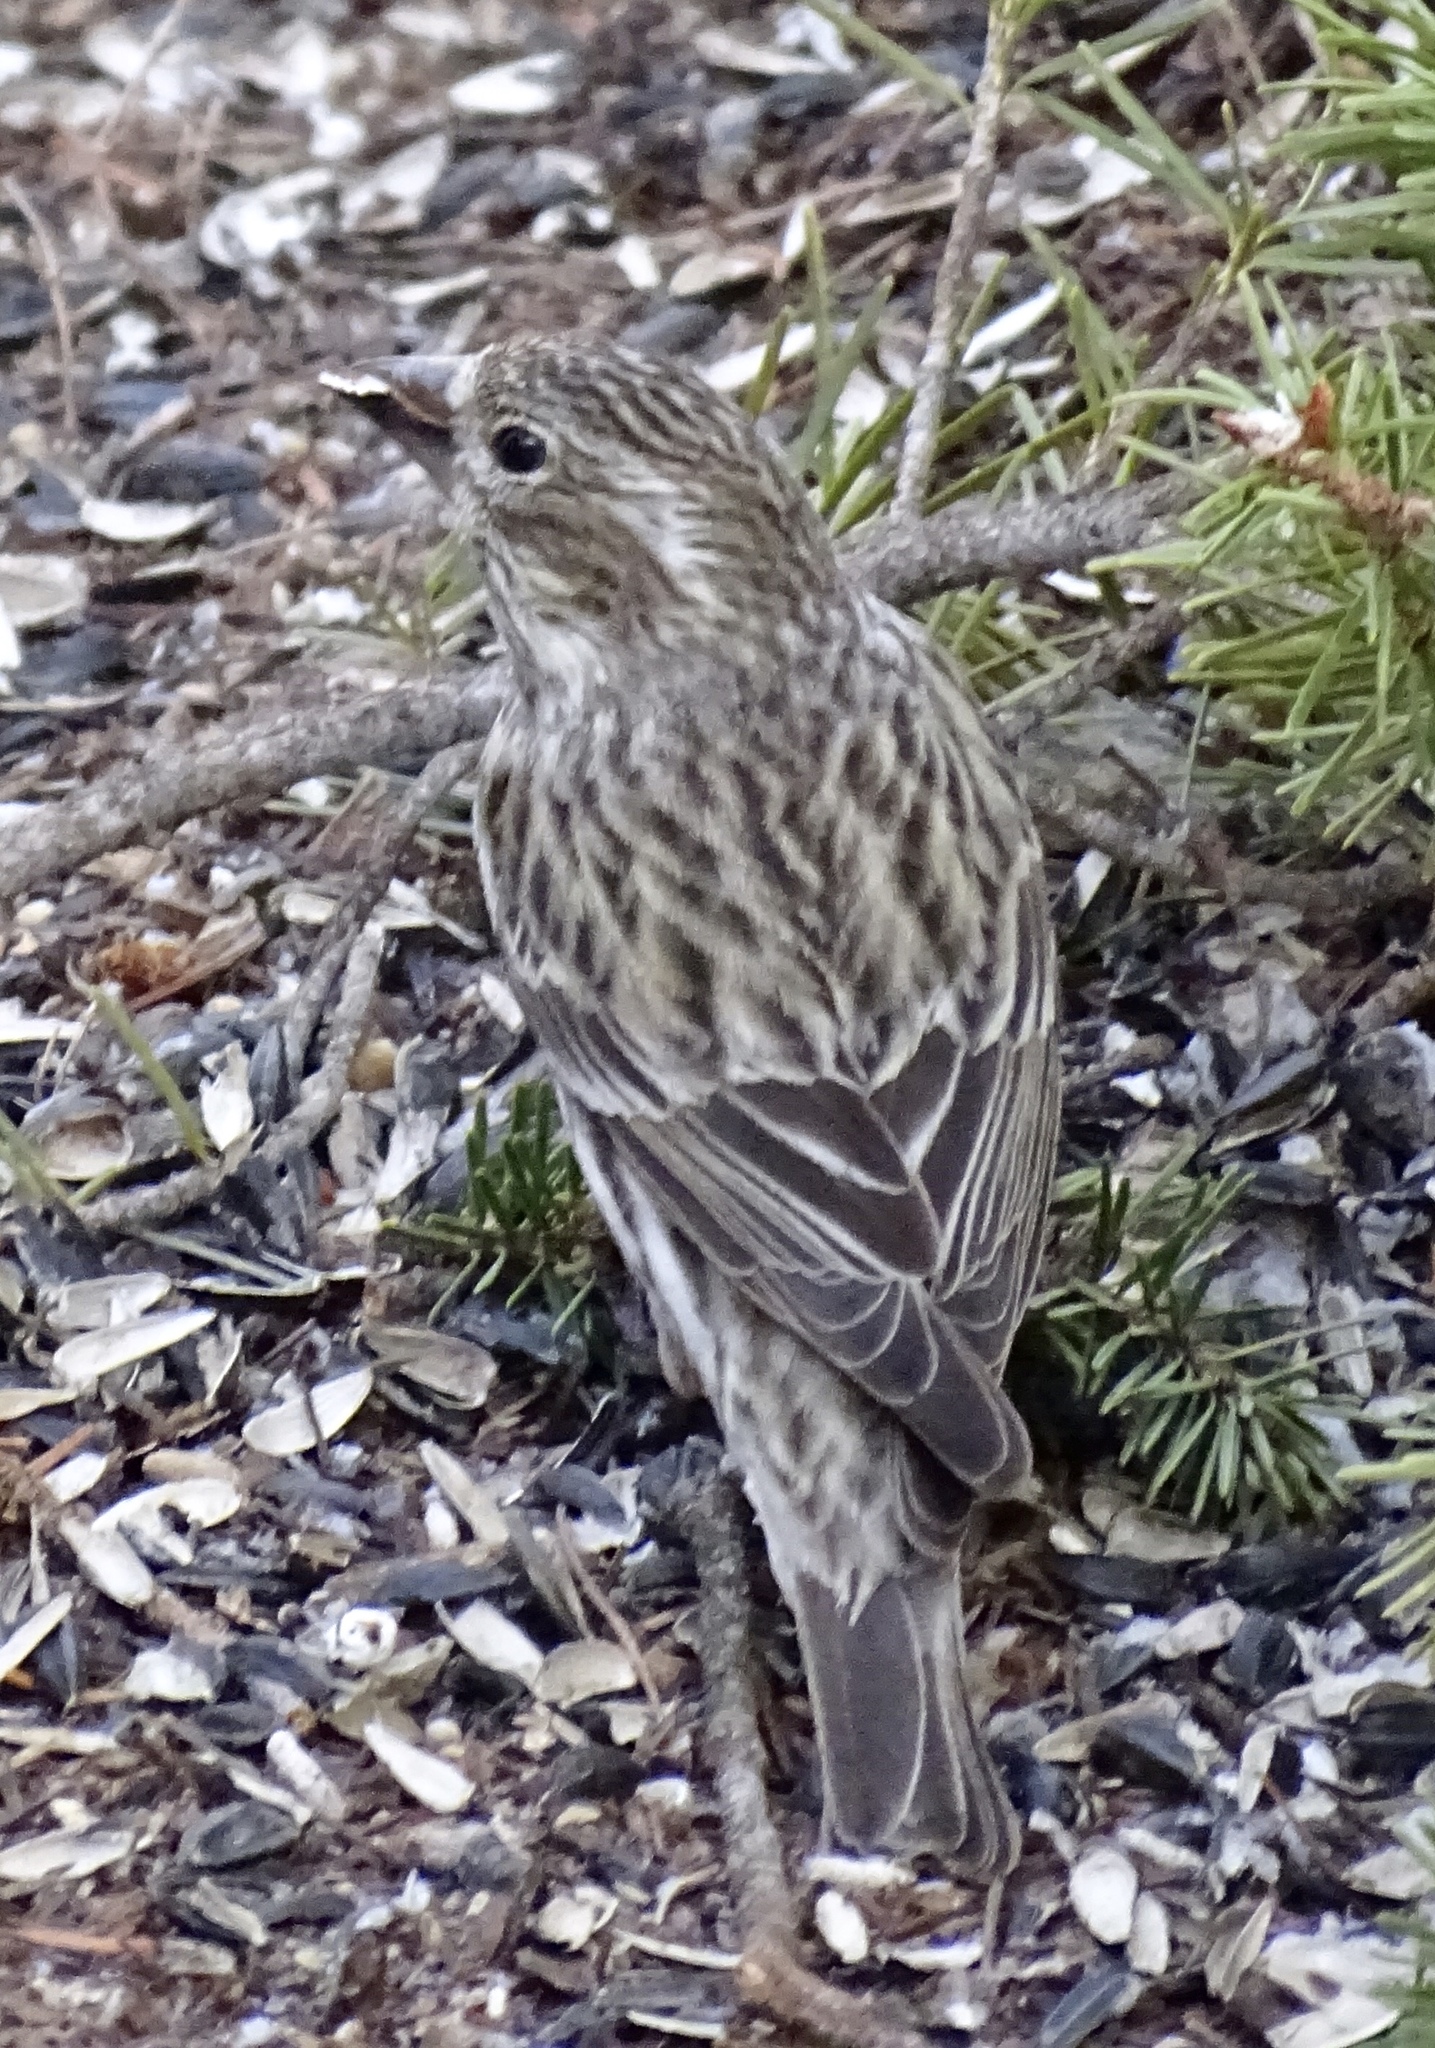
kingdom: Animalia
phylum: Chordata
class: Aves
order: Passeriformes
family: Fringillidae
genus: Haemorhous
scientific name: Haemorhous cassinii
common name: Cassin's finch
